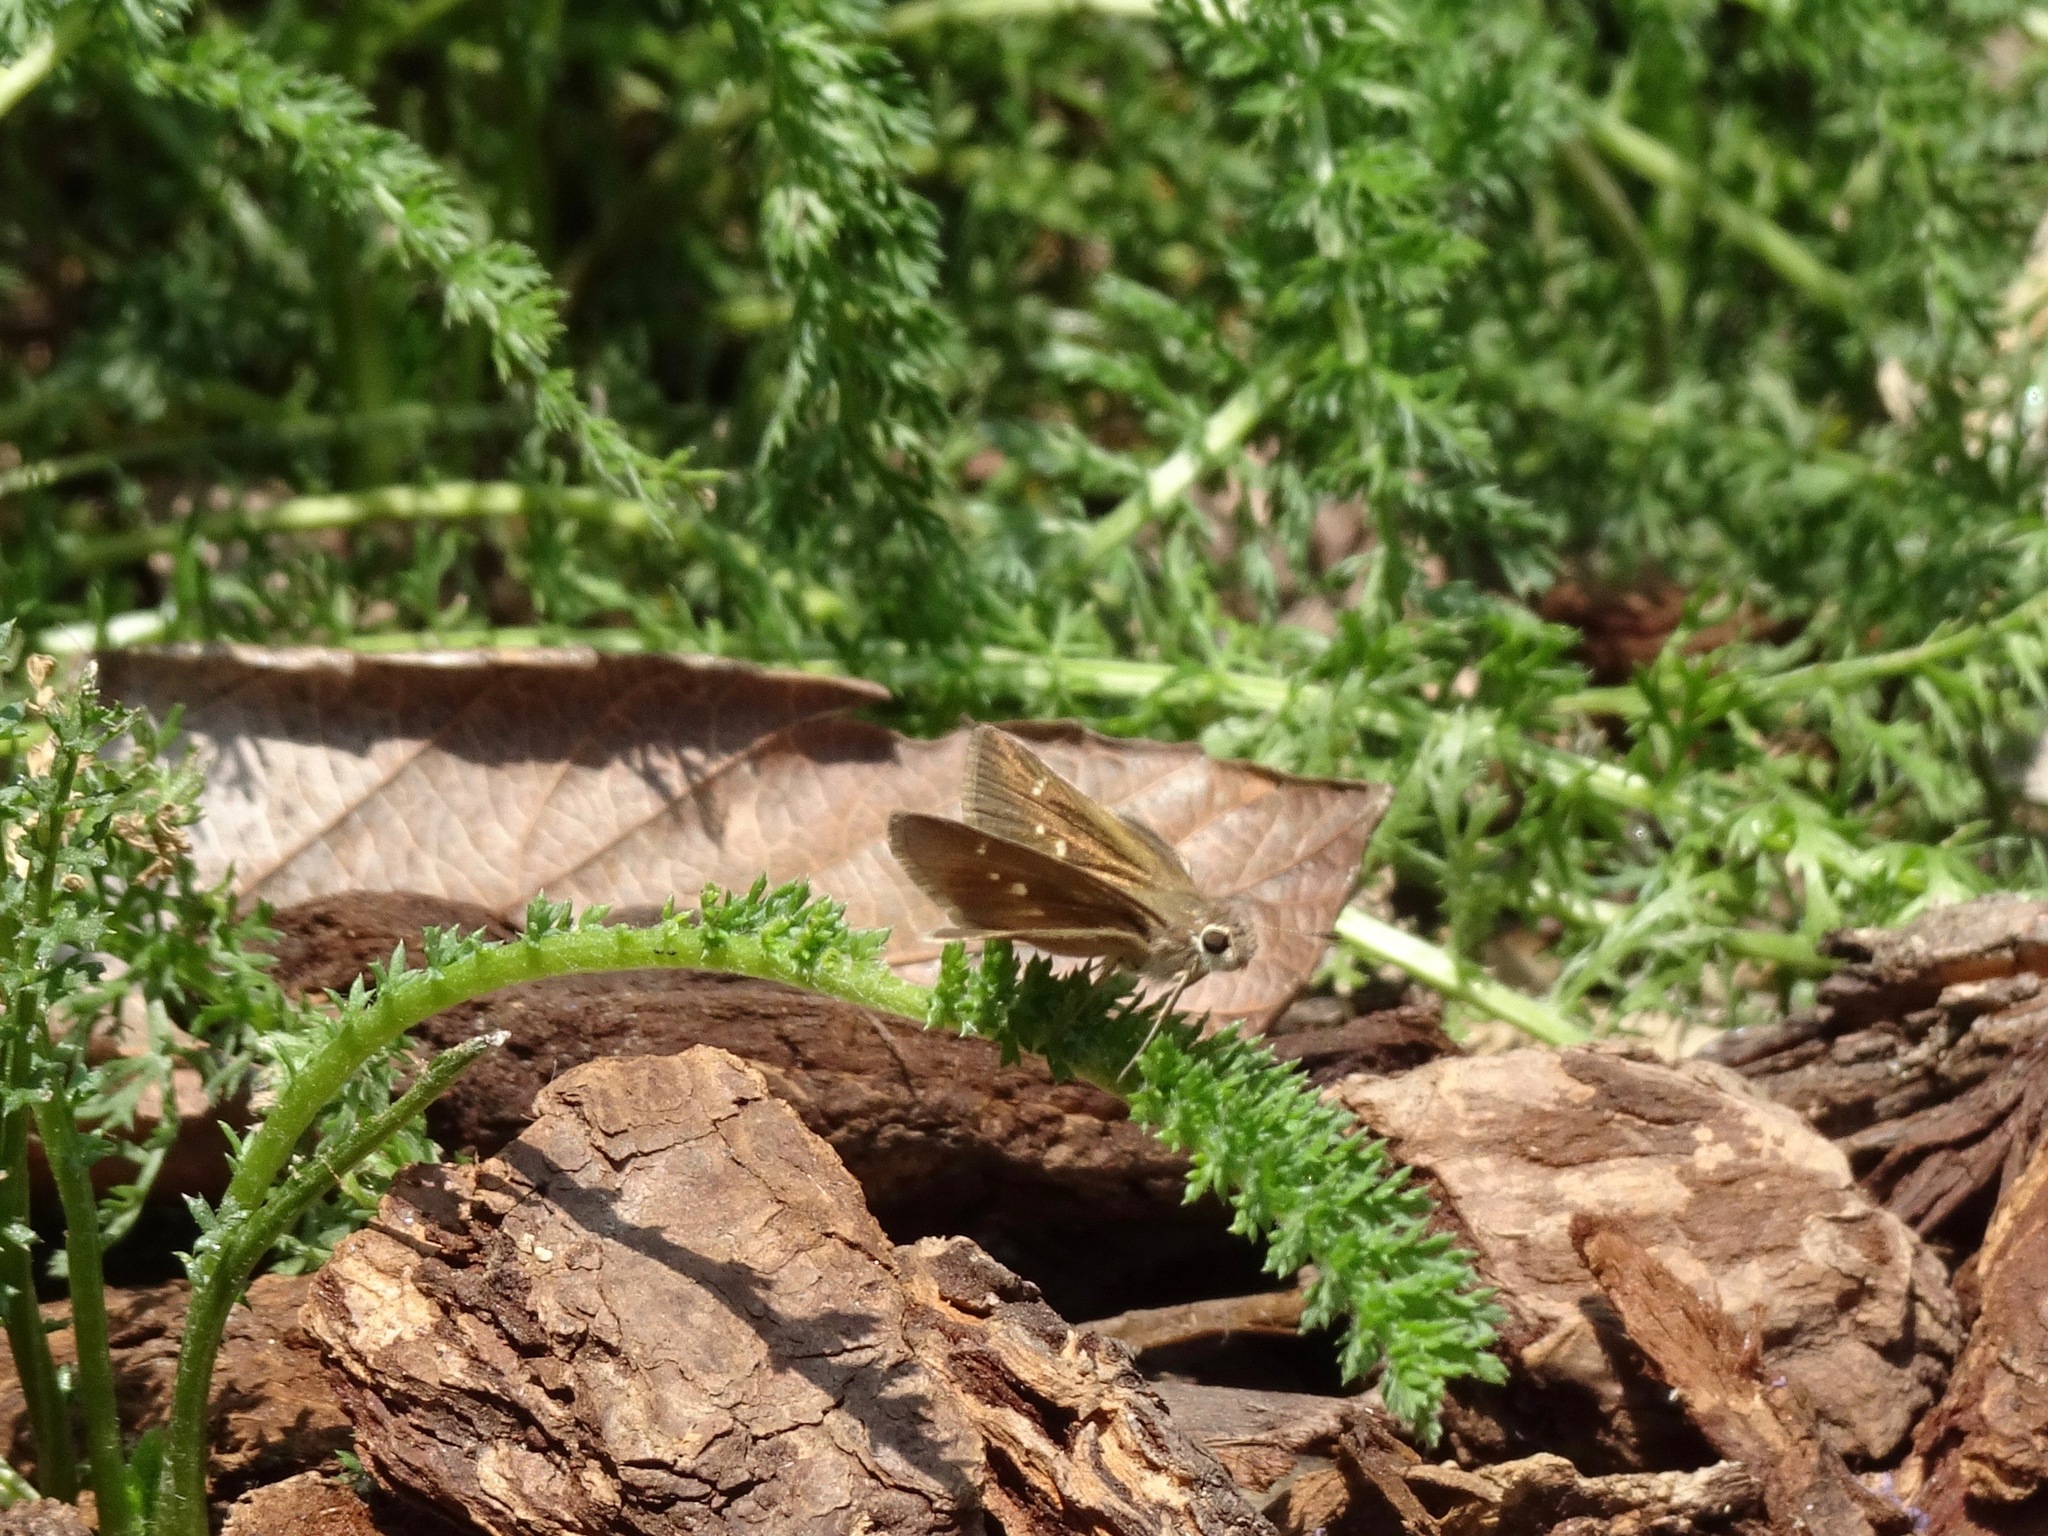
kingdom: Animalia
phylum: Arthropoda
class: Insecta
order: Lepidoptera
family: Hesperiidae
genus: Lerodea
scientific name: Lerodea eufala
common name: Eufala skipper
